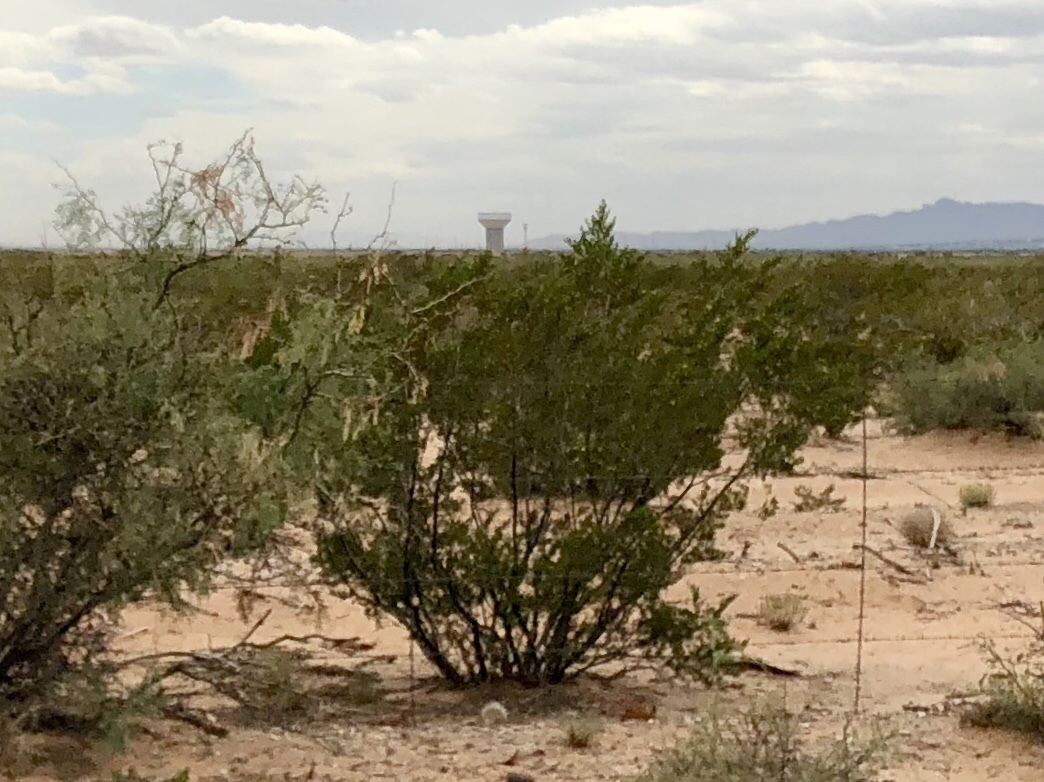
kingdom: Plantae
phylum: Tracheophyta
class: Magnoliopsida
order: Zygophyllales
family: Zygophyllaceae
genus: Larrea
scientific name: Larrea tridentata
